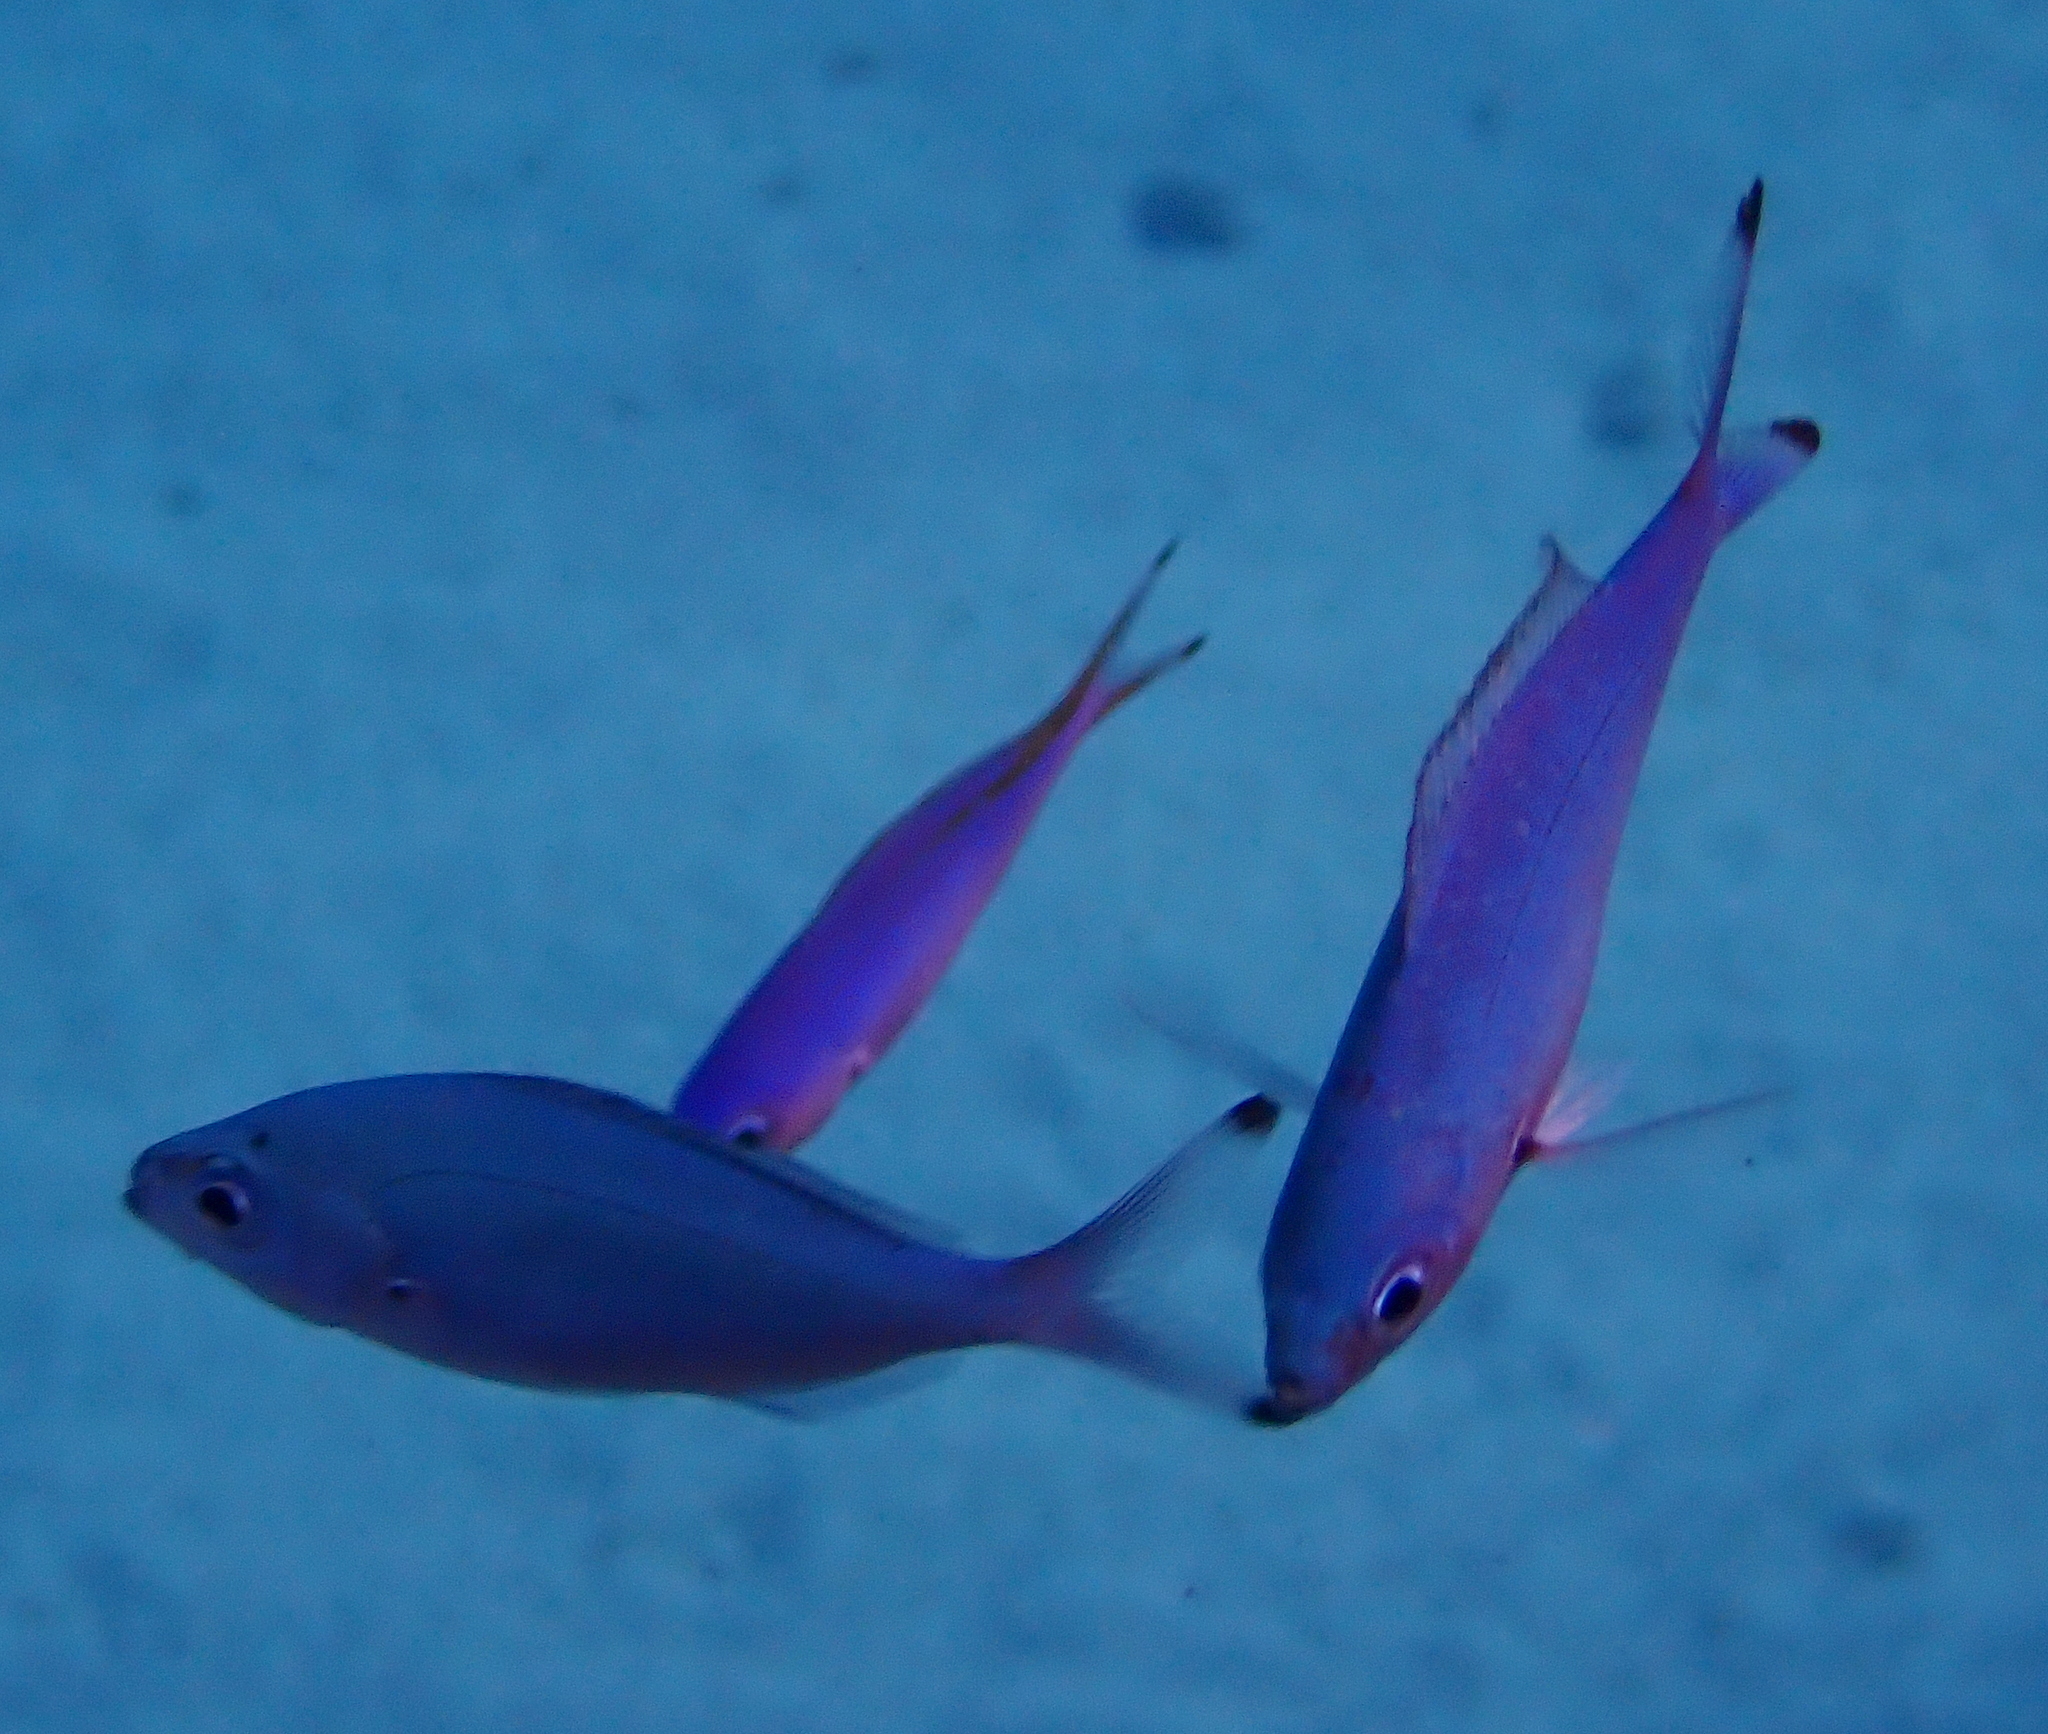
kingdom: Animalia
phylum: Chordata
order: Perciformes
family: Caesionidae
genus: Caesio
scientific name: Caesio lunaris
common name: Blue fusilier
